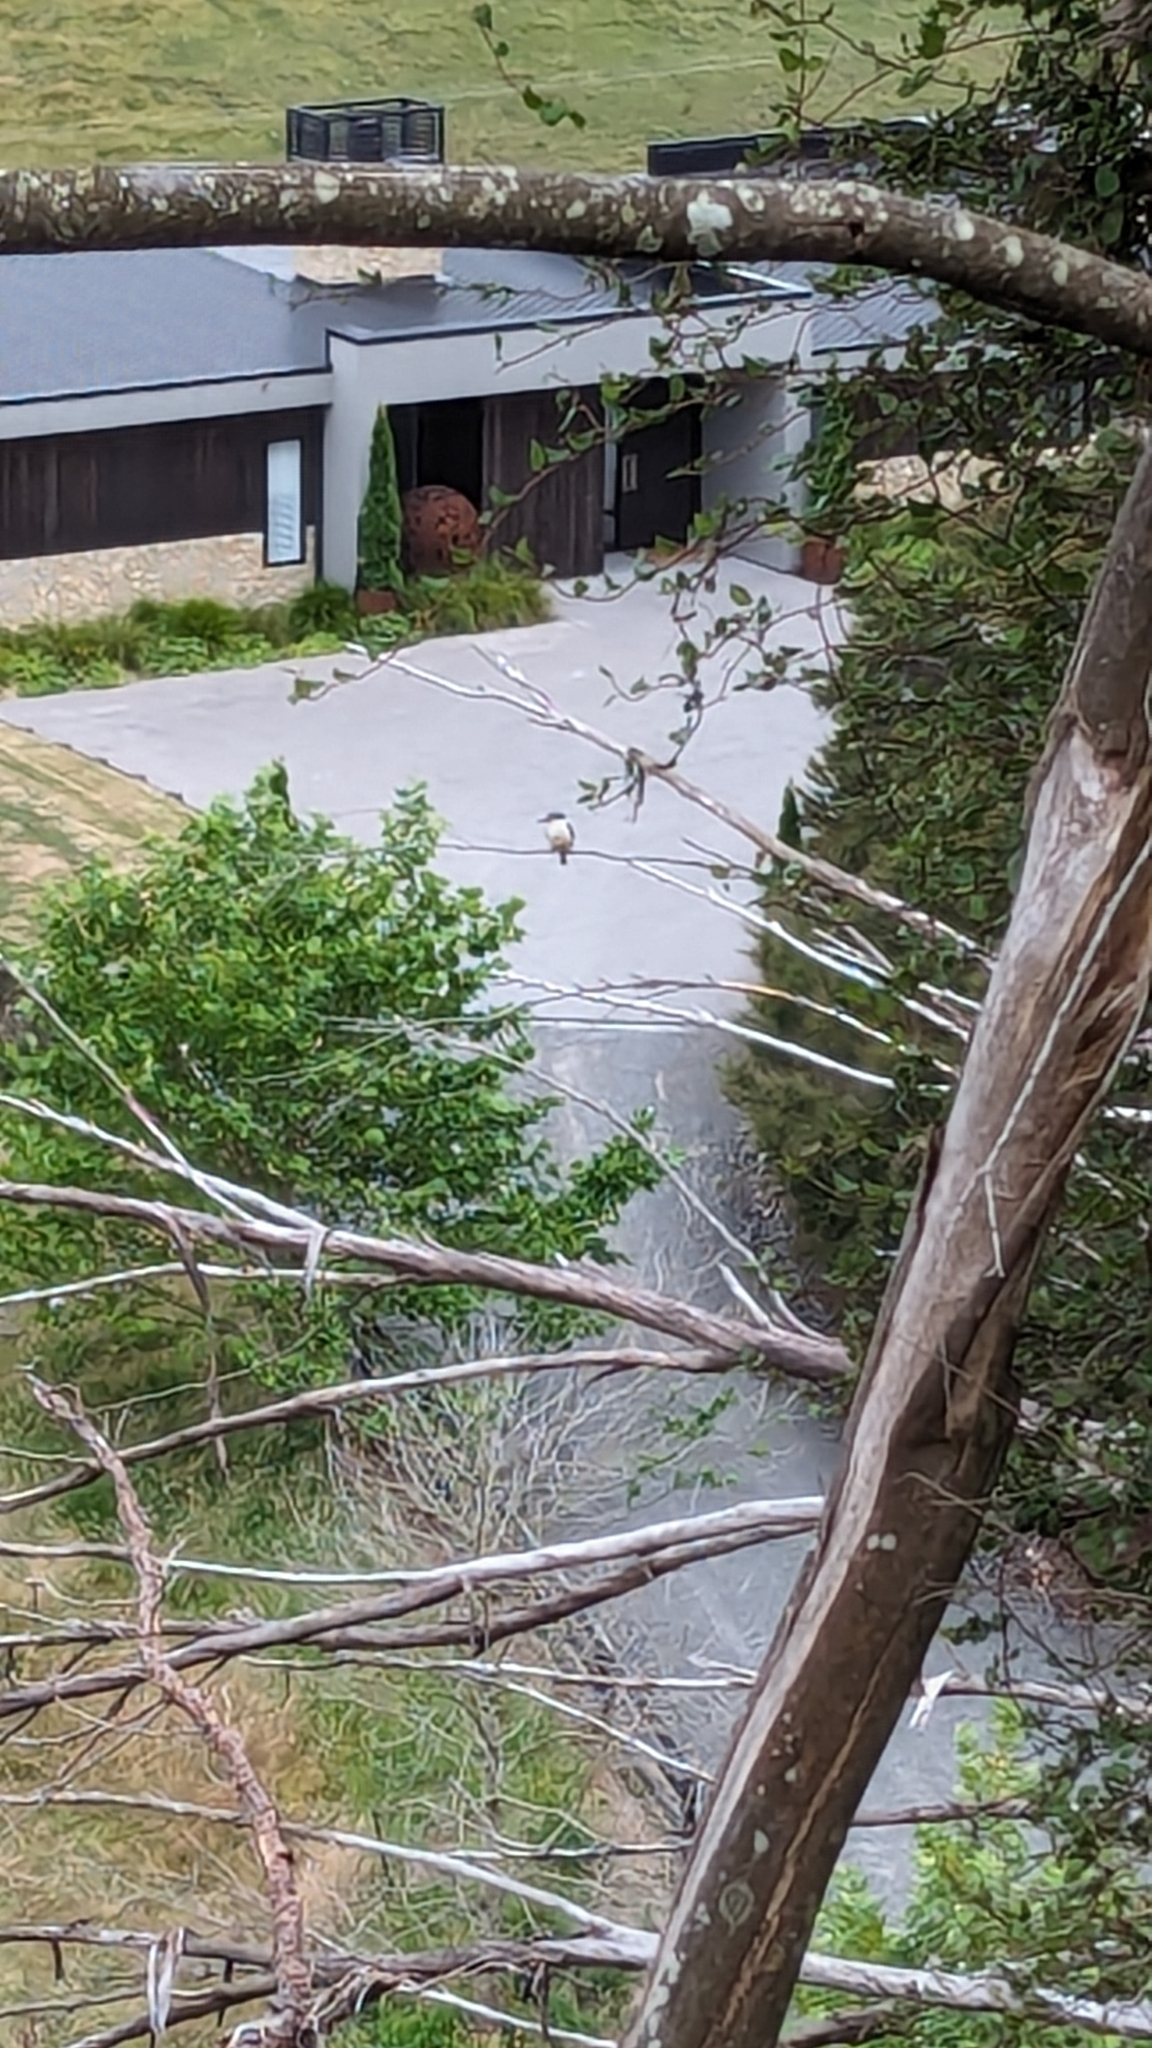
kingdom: Animalia
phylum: Chordata
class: Aves
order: Coraciiformes
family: Alcedinidae
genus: Todiramphus
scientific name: Todiramphus sanctus
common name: Sacred kingfisher
